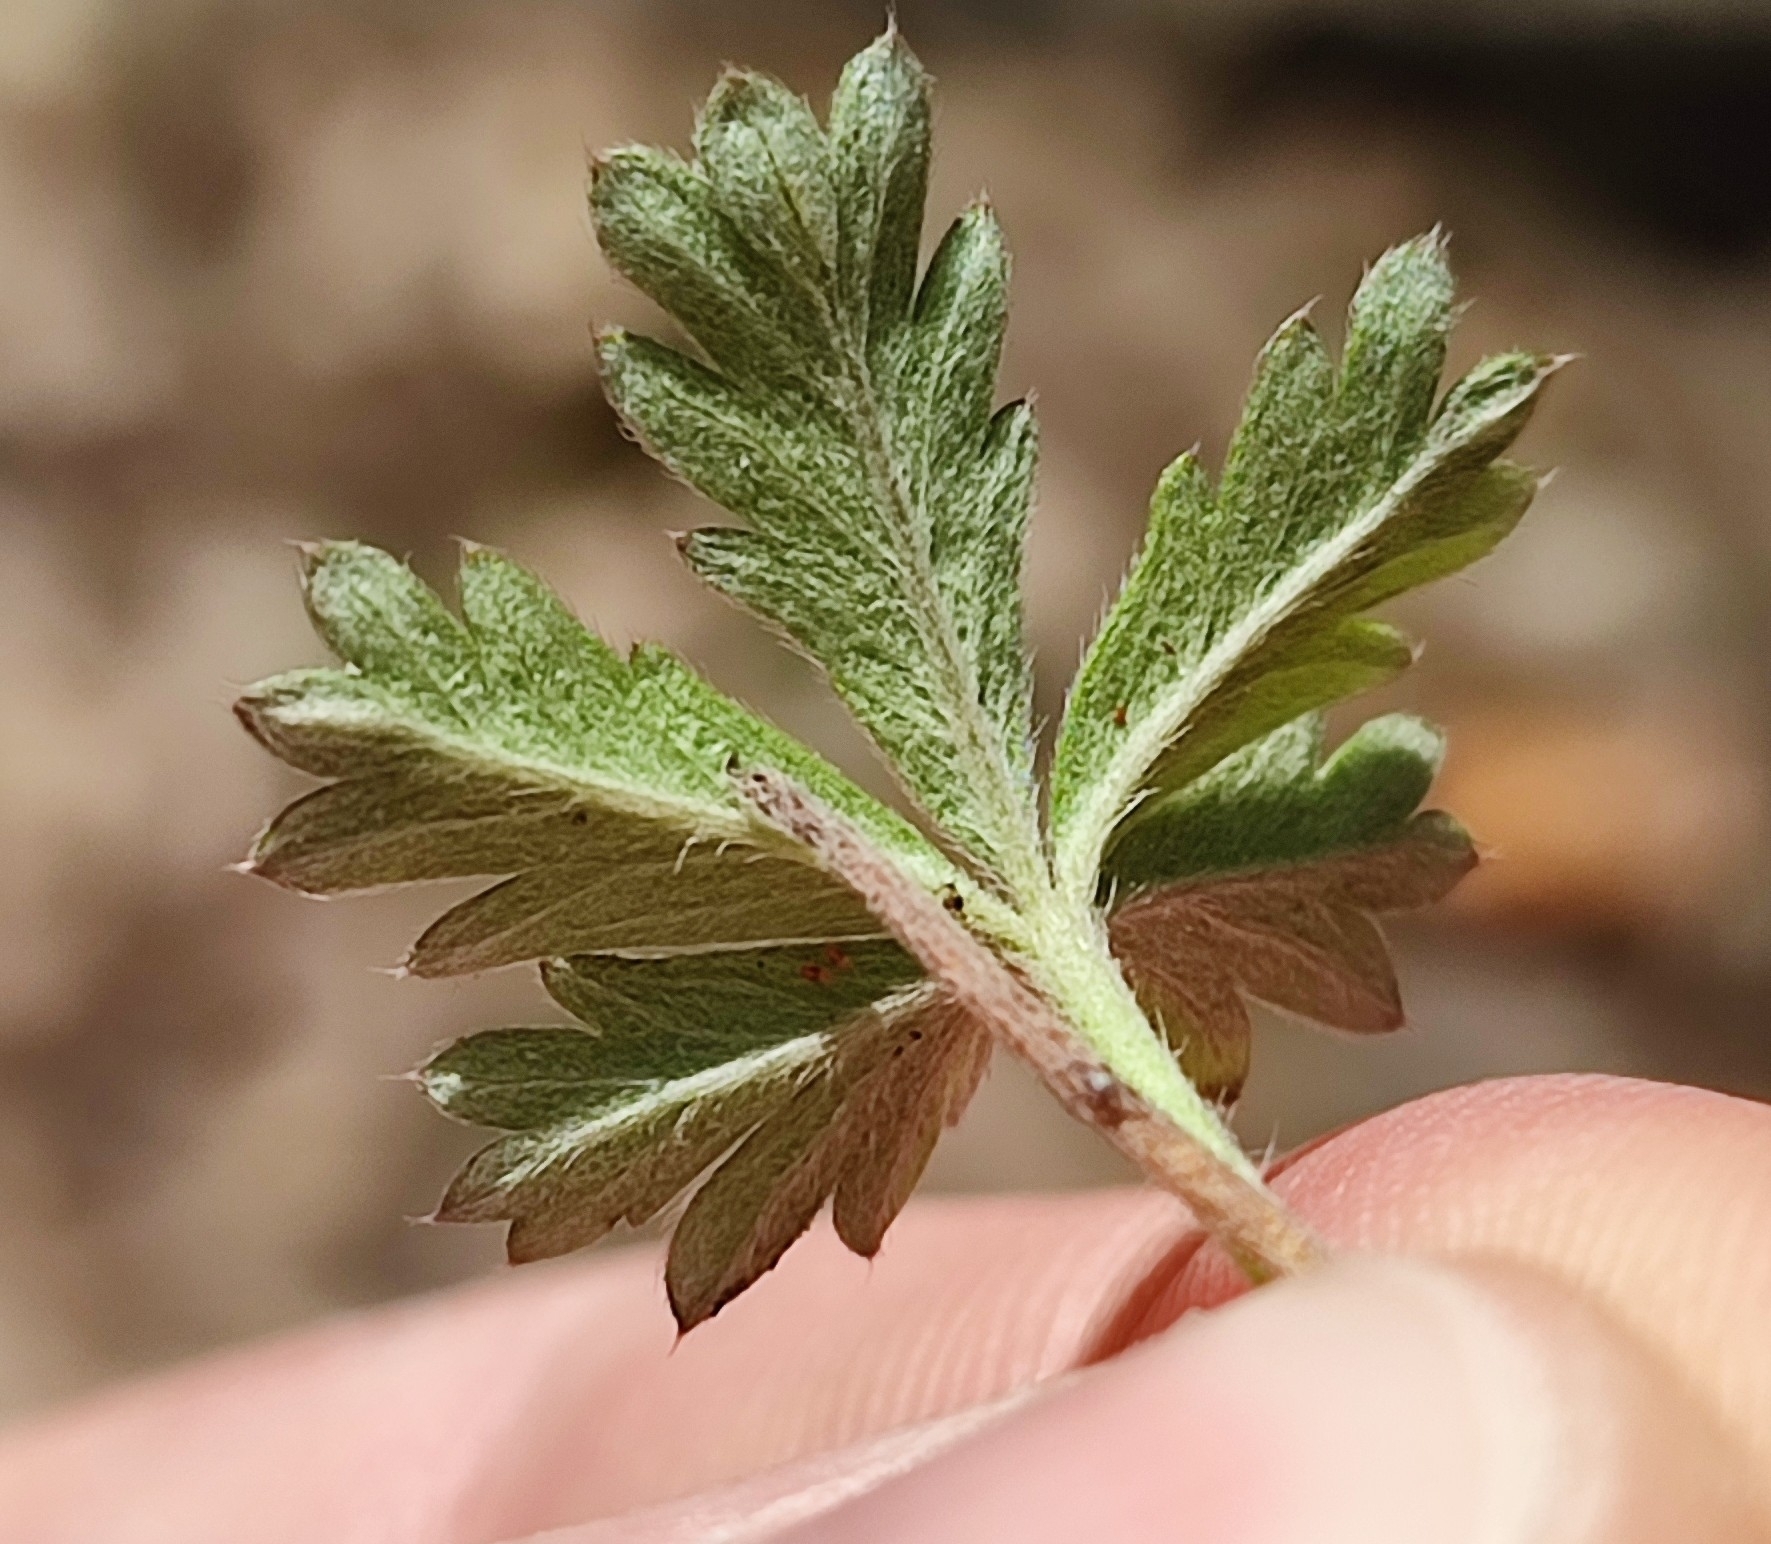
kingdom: Plantae
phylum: Tracheophyta
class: Magnoliopsida
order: Rosales
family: Rosaceae
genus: Potentilla
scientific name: Potentilla argentea
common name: Hoary cinquefoil
